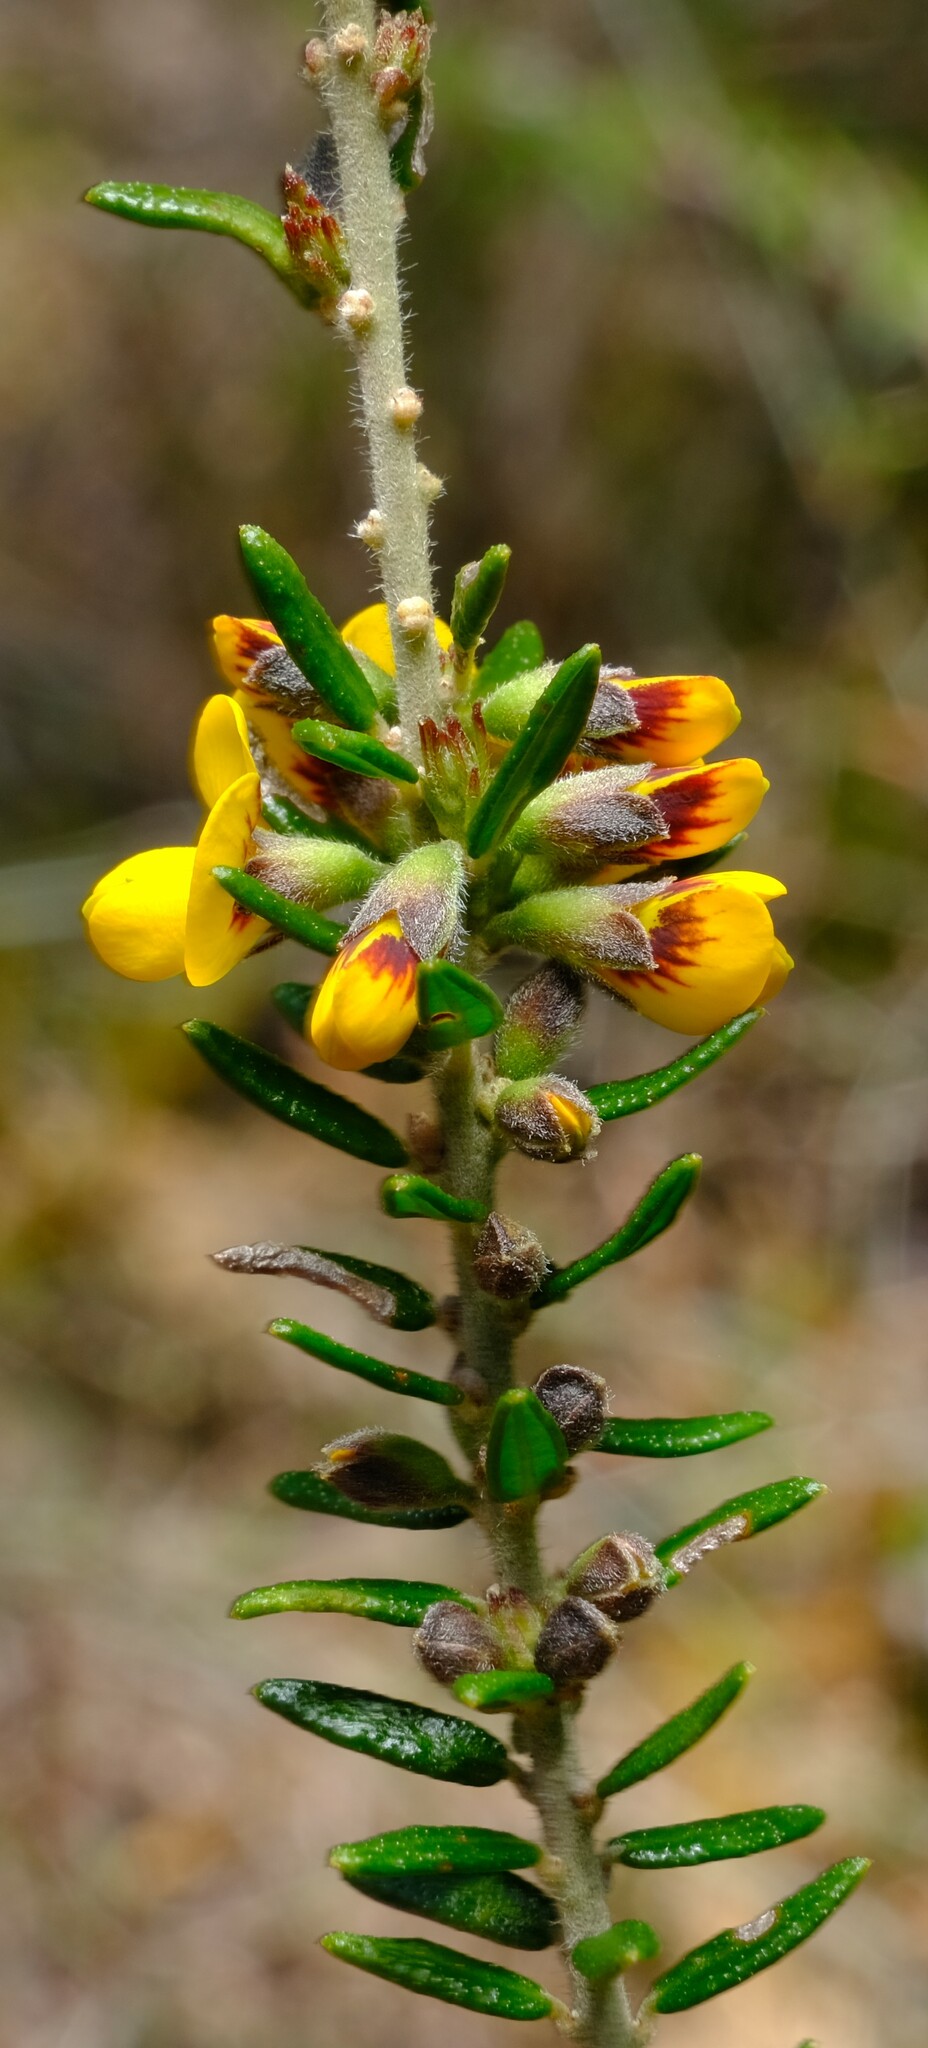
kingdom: Plantae
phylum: Tracheophyta
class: Magnoliopsida
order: Fabales
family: Fabaceae
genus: Aotus
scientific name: Aotus ericoides
